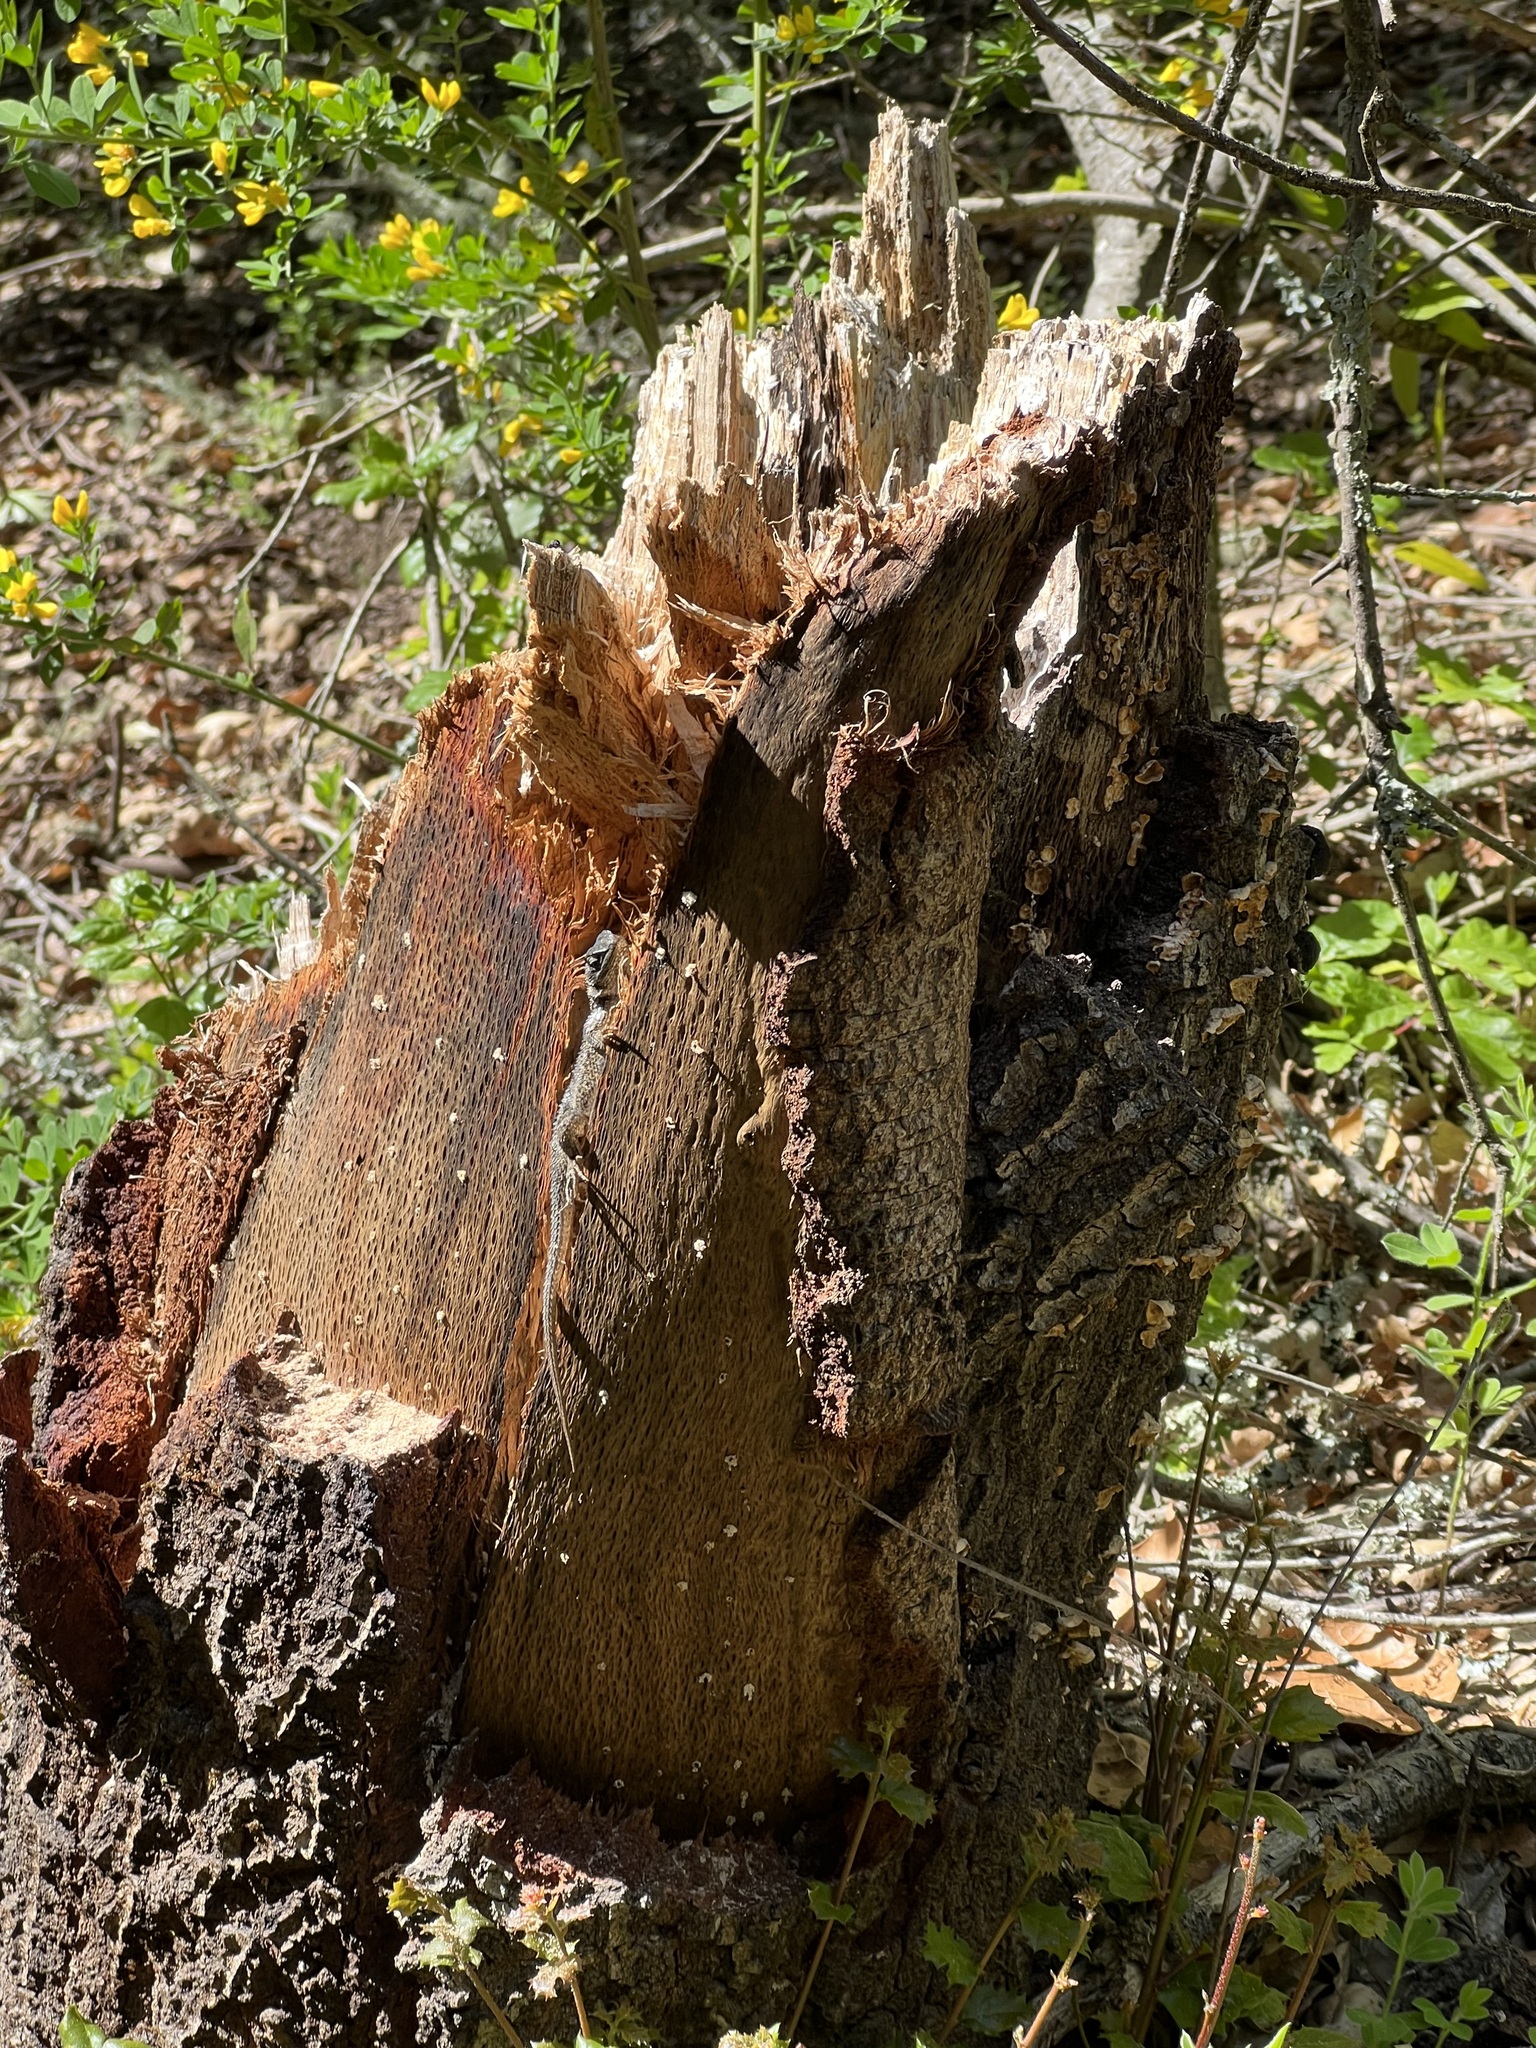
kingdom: Animalia
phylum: Chordata
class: Squamata
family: Phrynosomatidae
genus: Sceloporus
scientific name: Sceloporus occidentalis
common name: Western fence lizard
